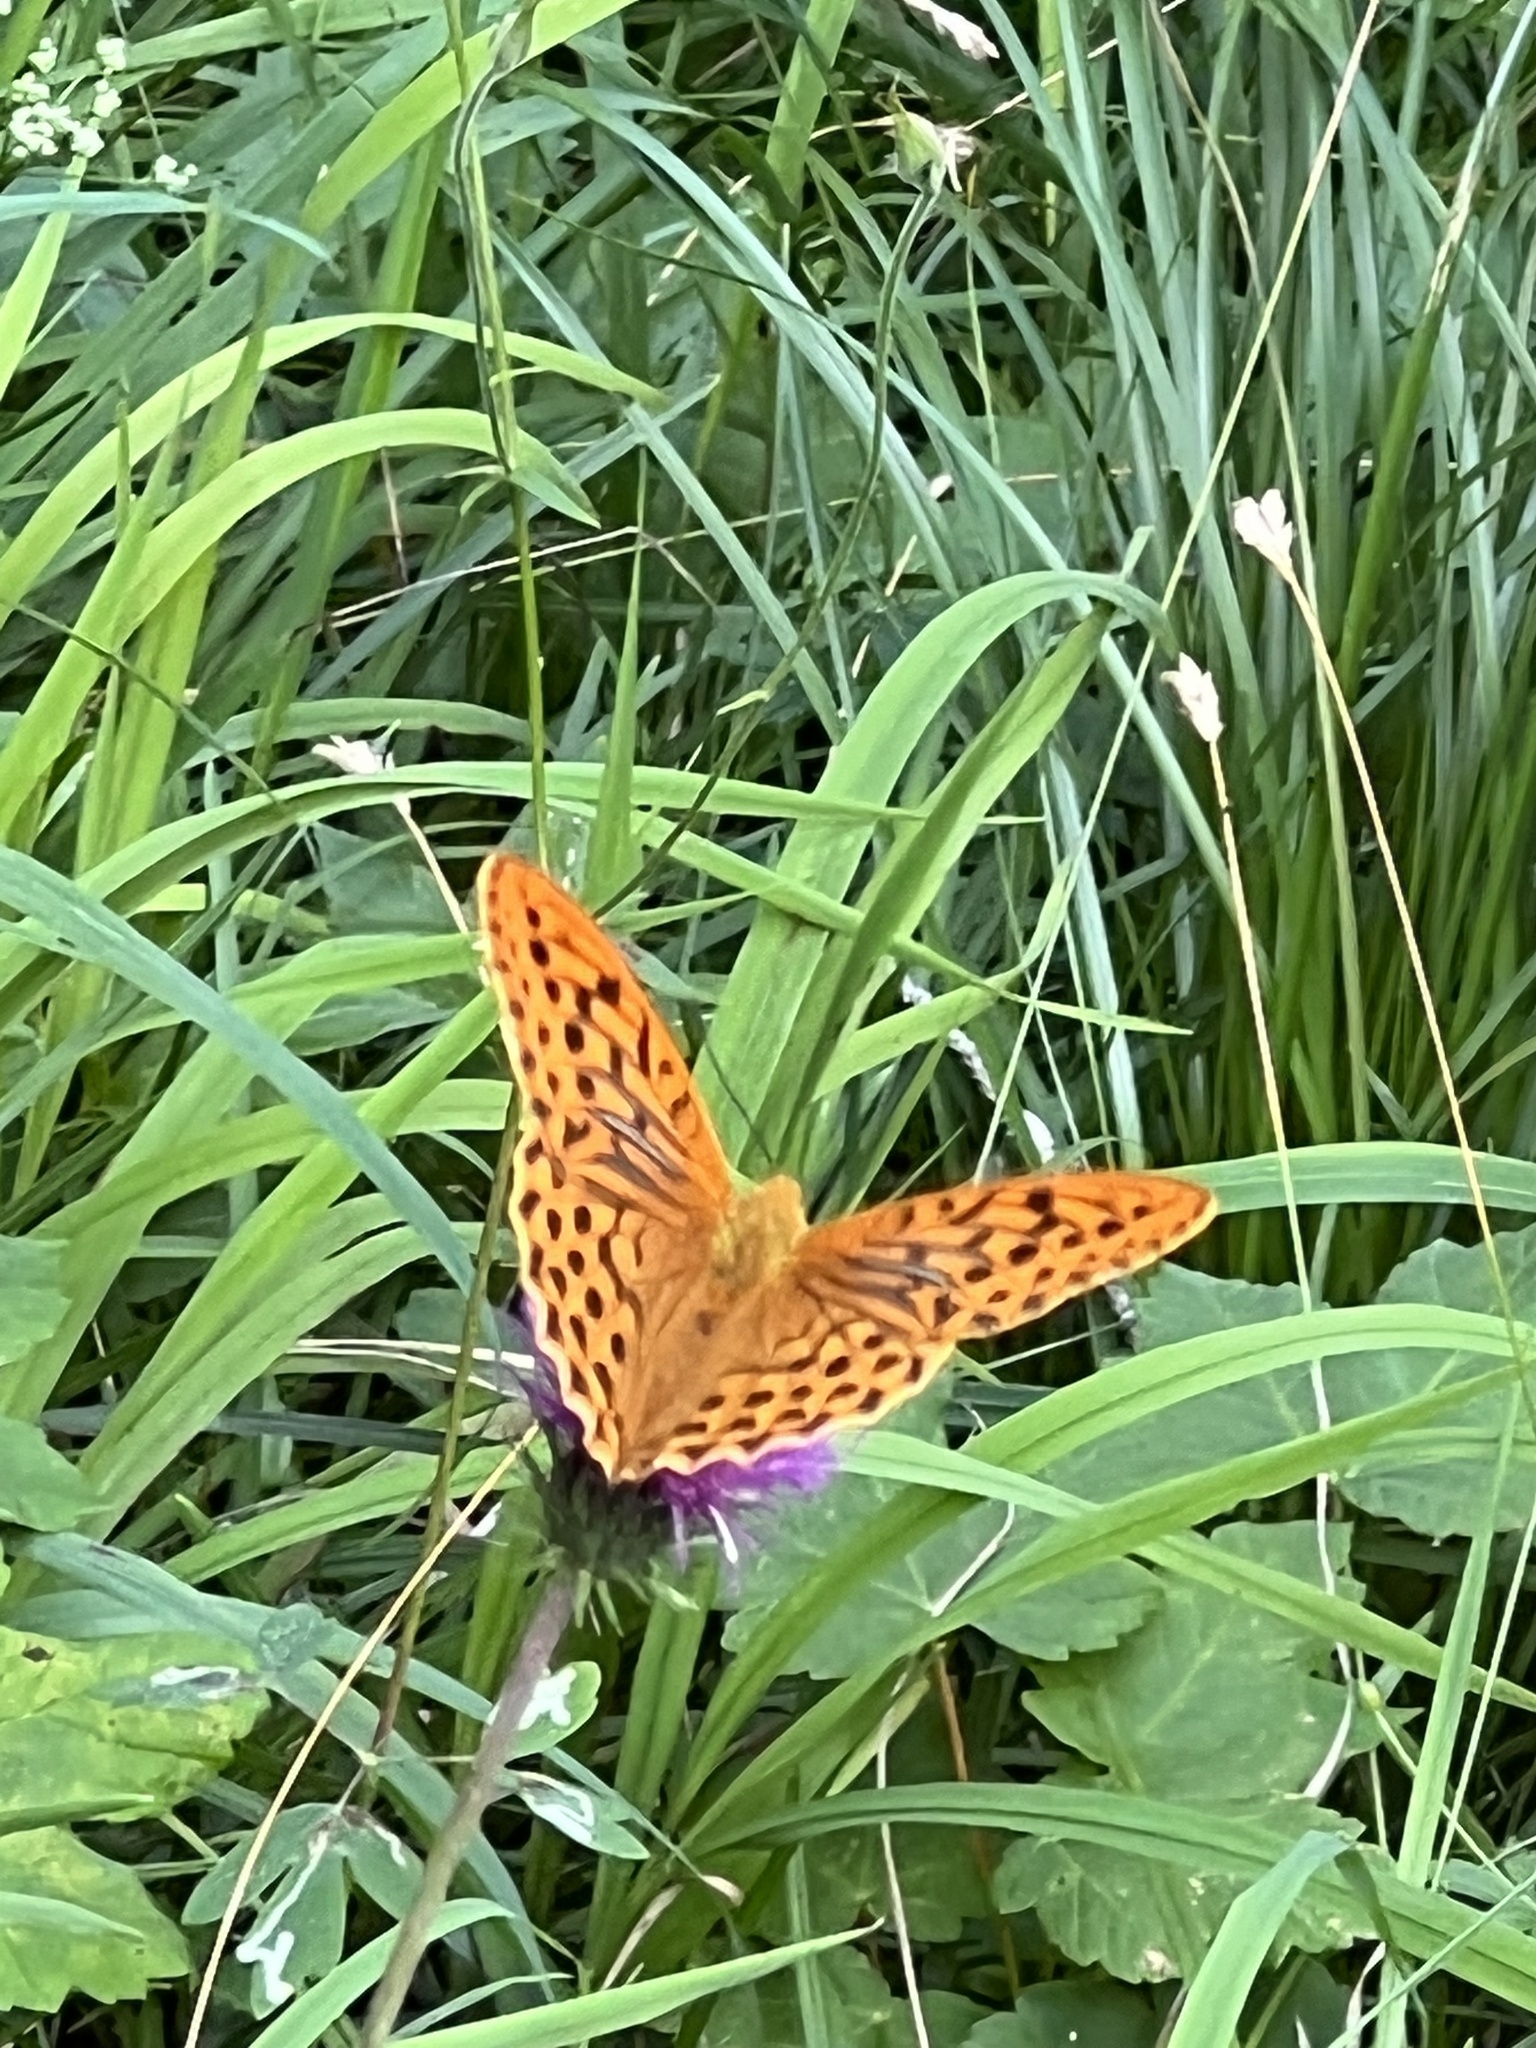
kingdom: Animalia
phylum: Arthropoda
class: Insecta
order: Lepidoptera
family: Nymphalidae
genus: Argynnis
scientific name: Argynnis paphia
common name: Silver-washed fritillary
